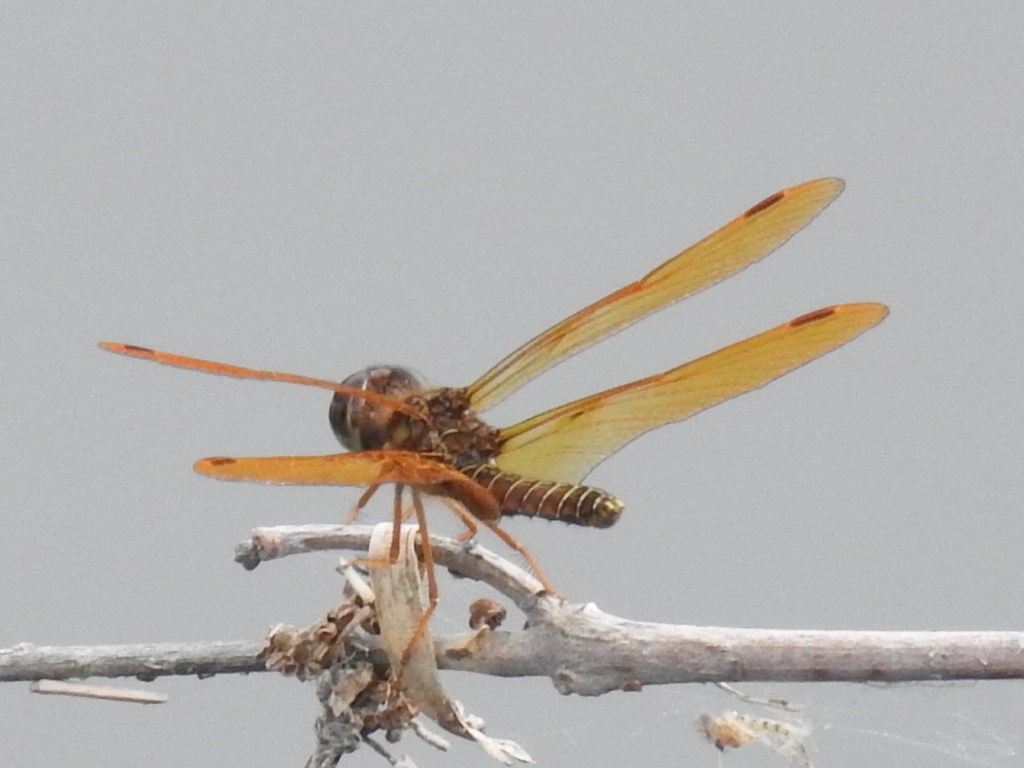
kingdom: Animalia
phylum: Arthropoda
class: Insecta
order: Odonata
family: Libellulidae
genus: Perithemis
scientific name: Perithemis tenera
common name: Eastern amberwing
